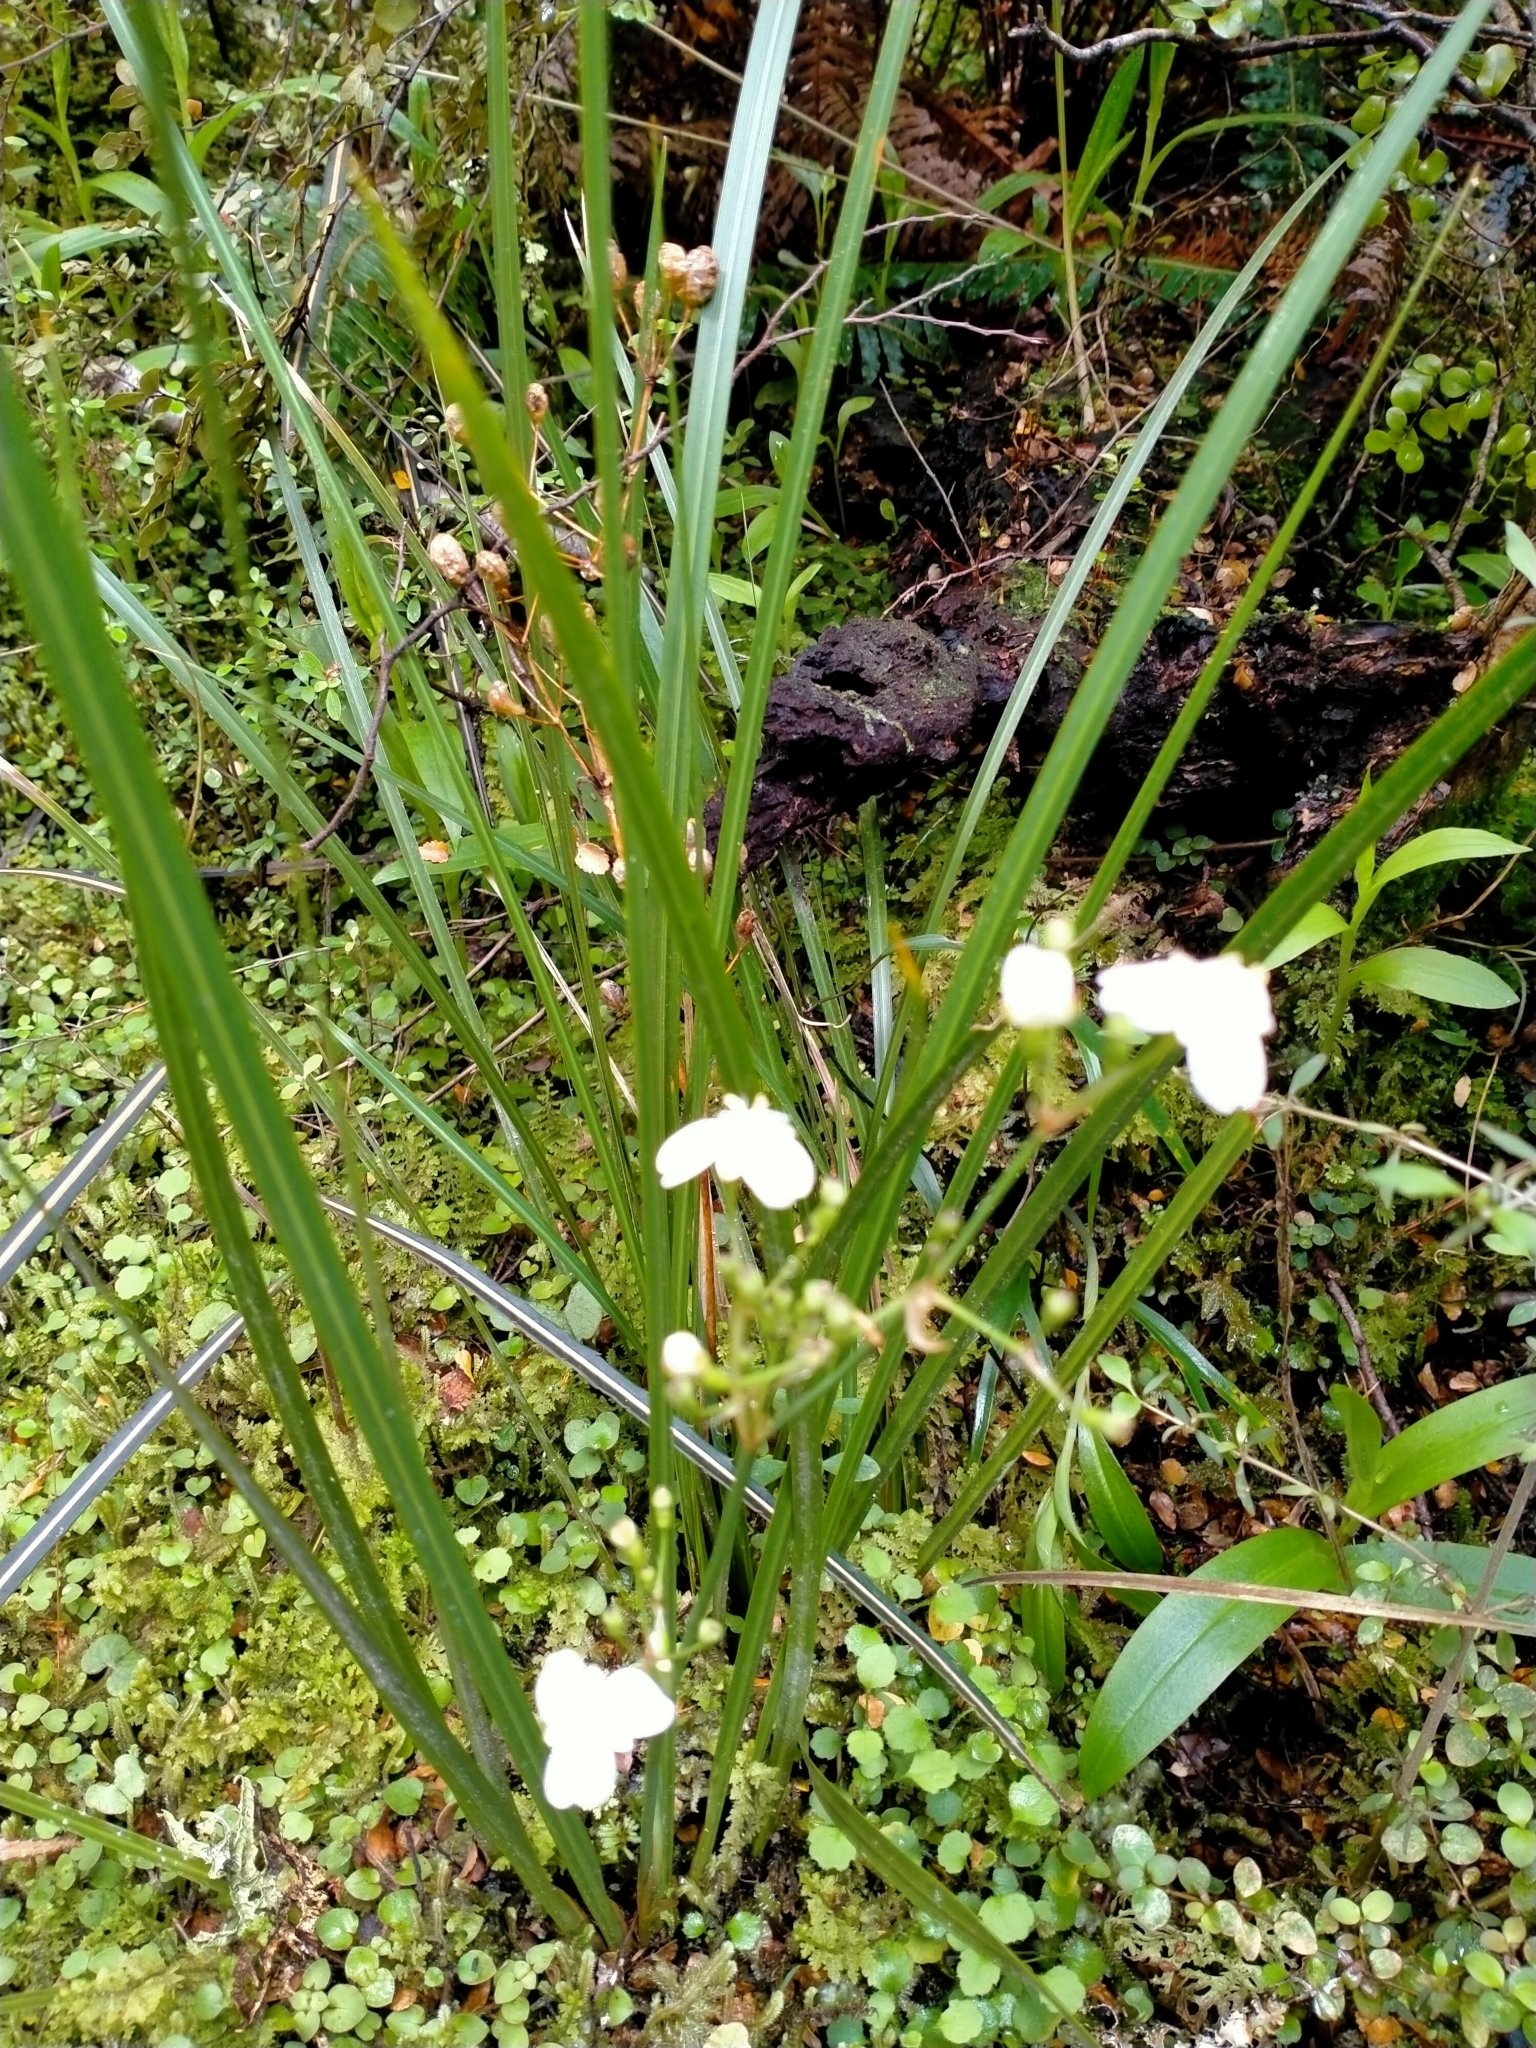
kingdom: Plantae
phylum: Tracheophyta
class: Liliopsida
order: Asparagales
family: Iridaceae
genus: Libertia
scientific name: Libertia ixioides
